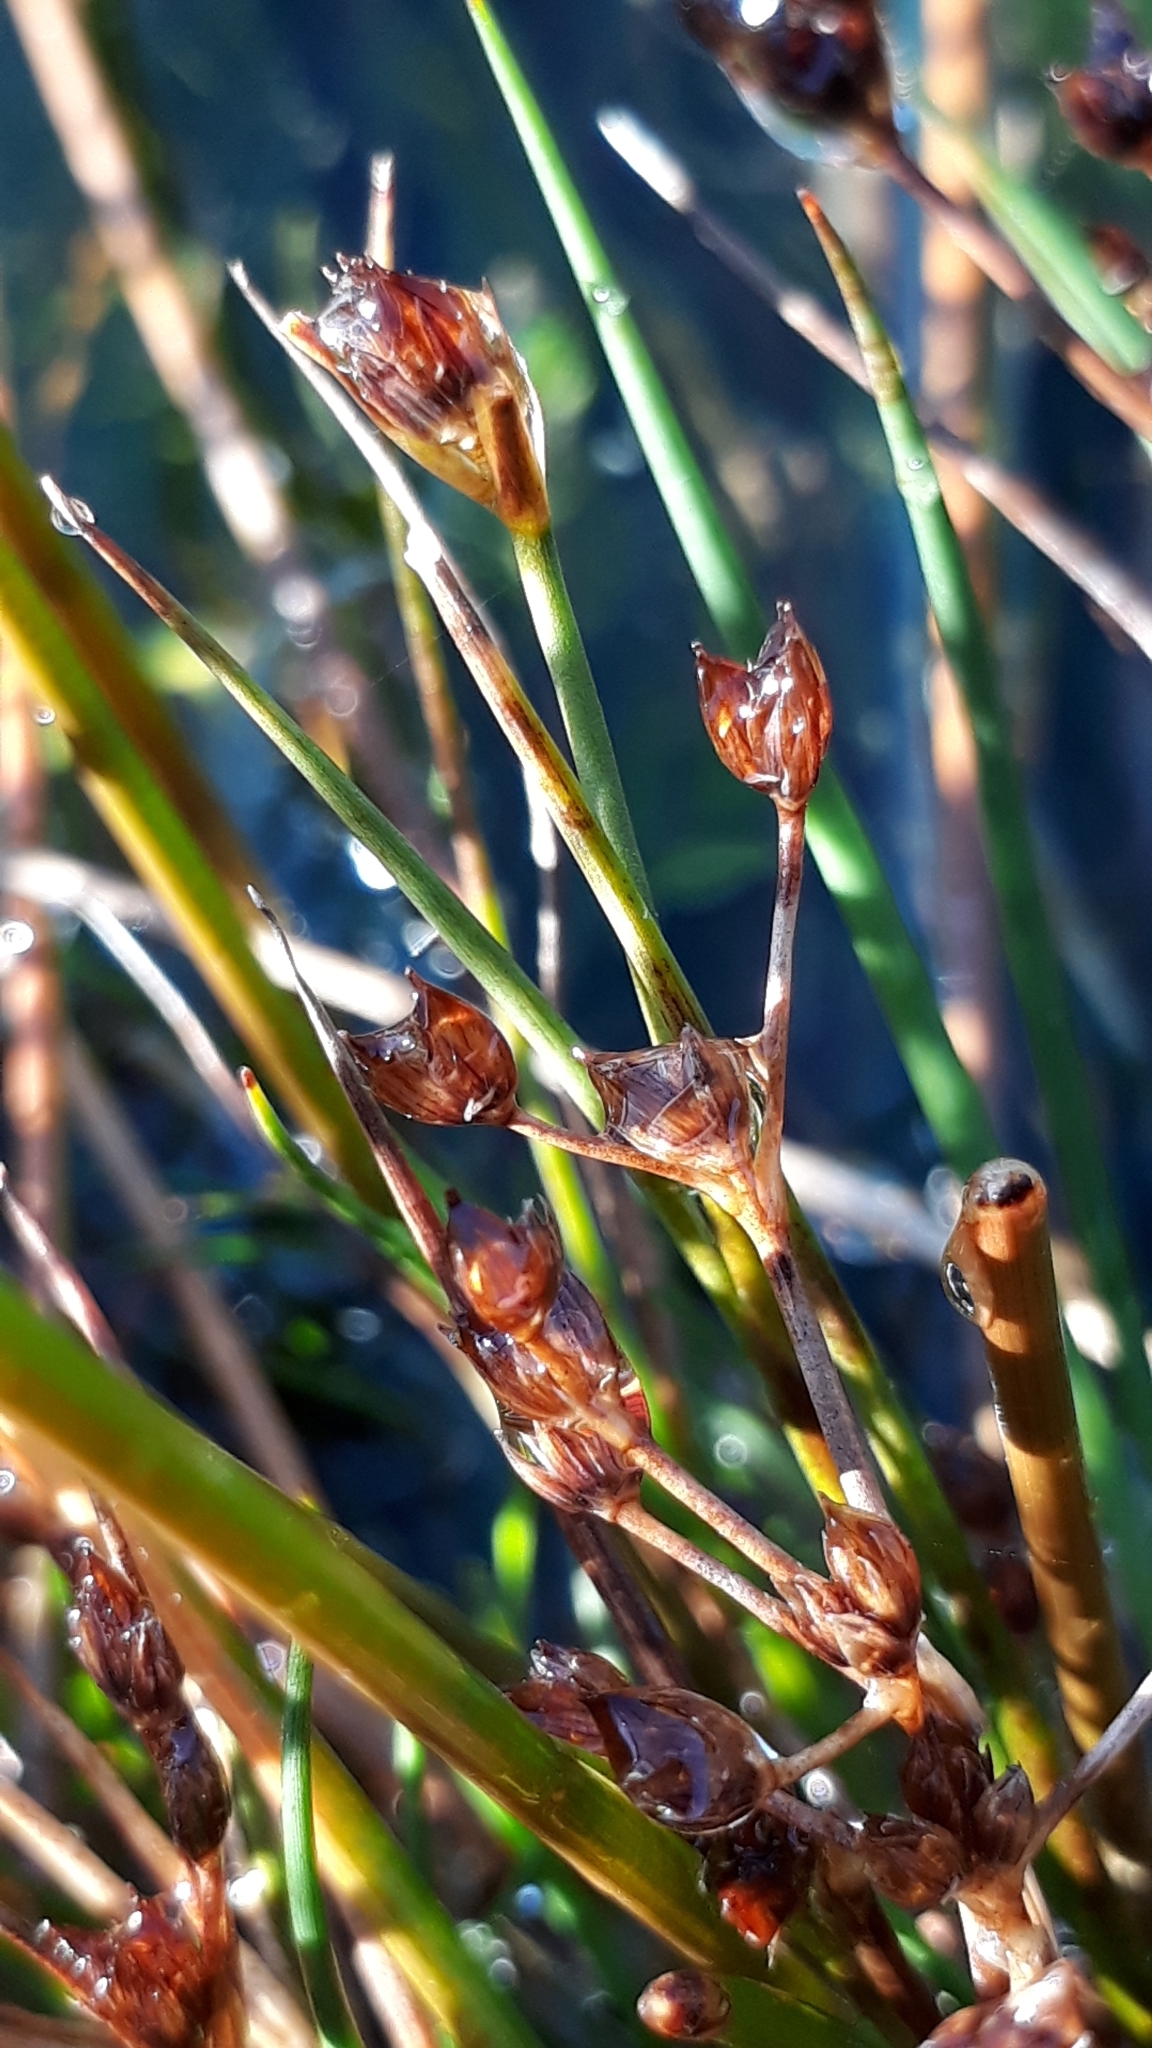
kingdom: Plantae
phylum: Tracheophyta
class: Liliopsida
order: Poales
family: Juncaceae
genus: Juncus
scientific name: Juncus articulatus
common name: Jointed rush
